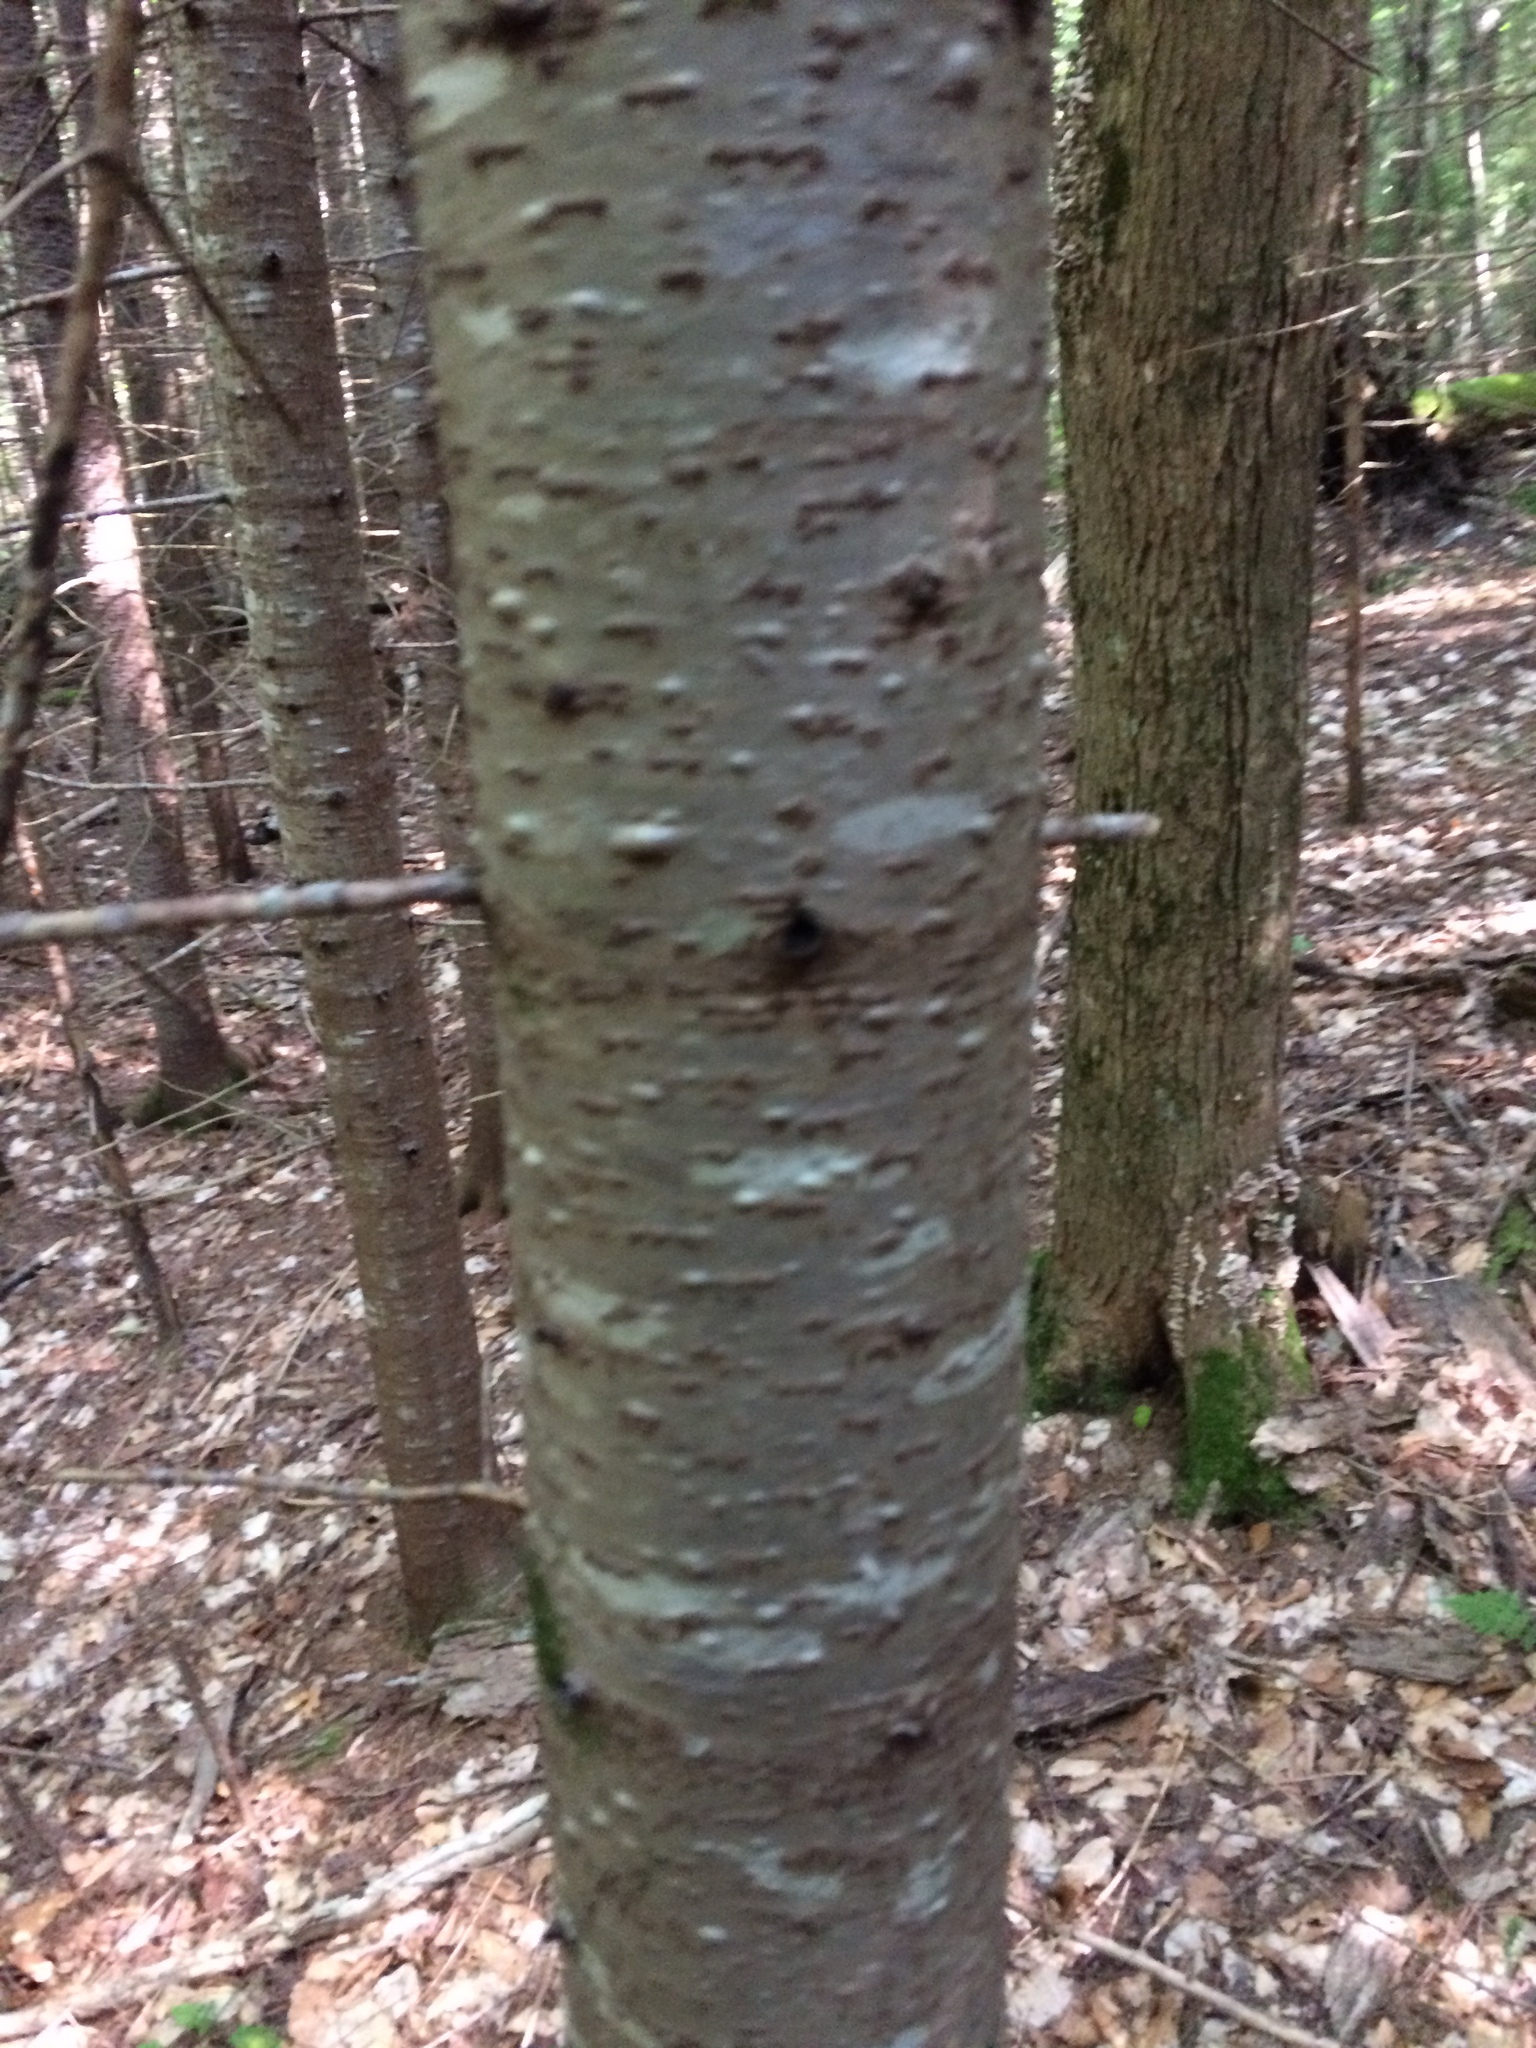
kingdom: Plantae
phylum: Tracheophyta
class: Pinopsida
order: Pinales
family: Pinaceae
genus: Abies
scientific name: Abies balsamea
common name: Balsam fir
